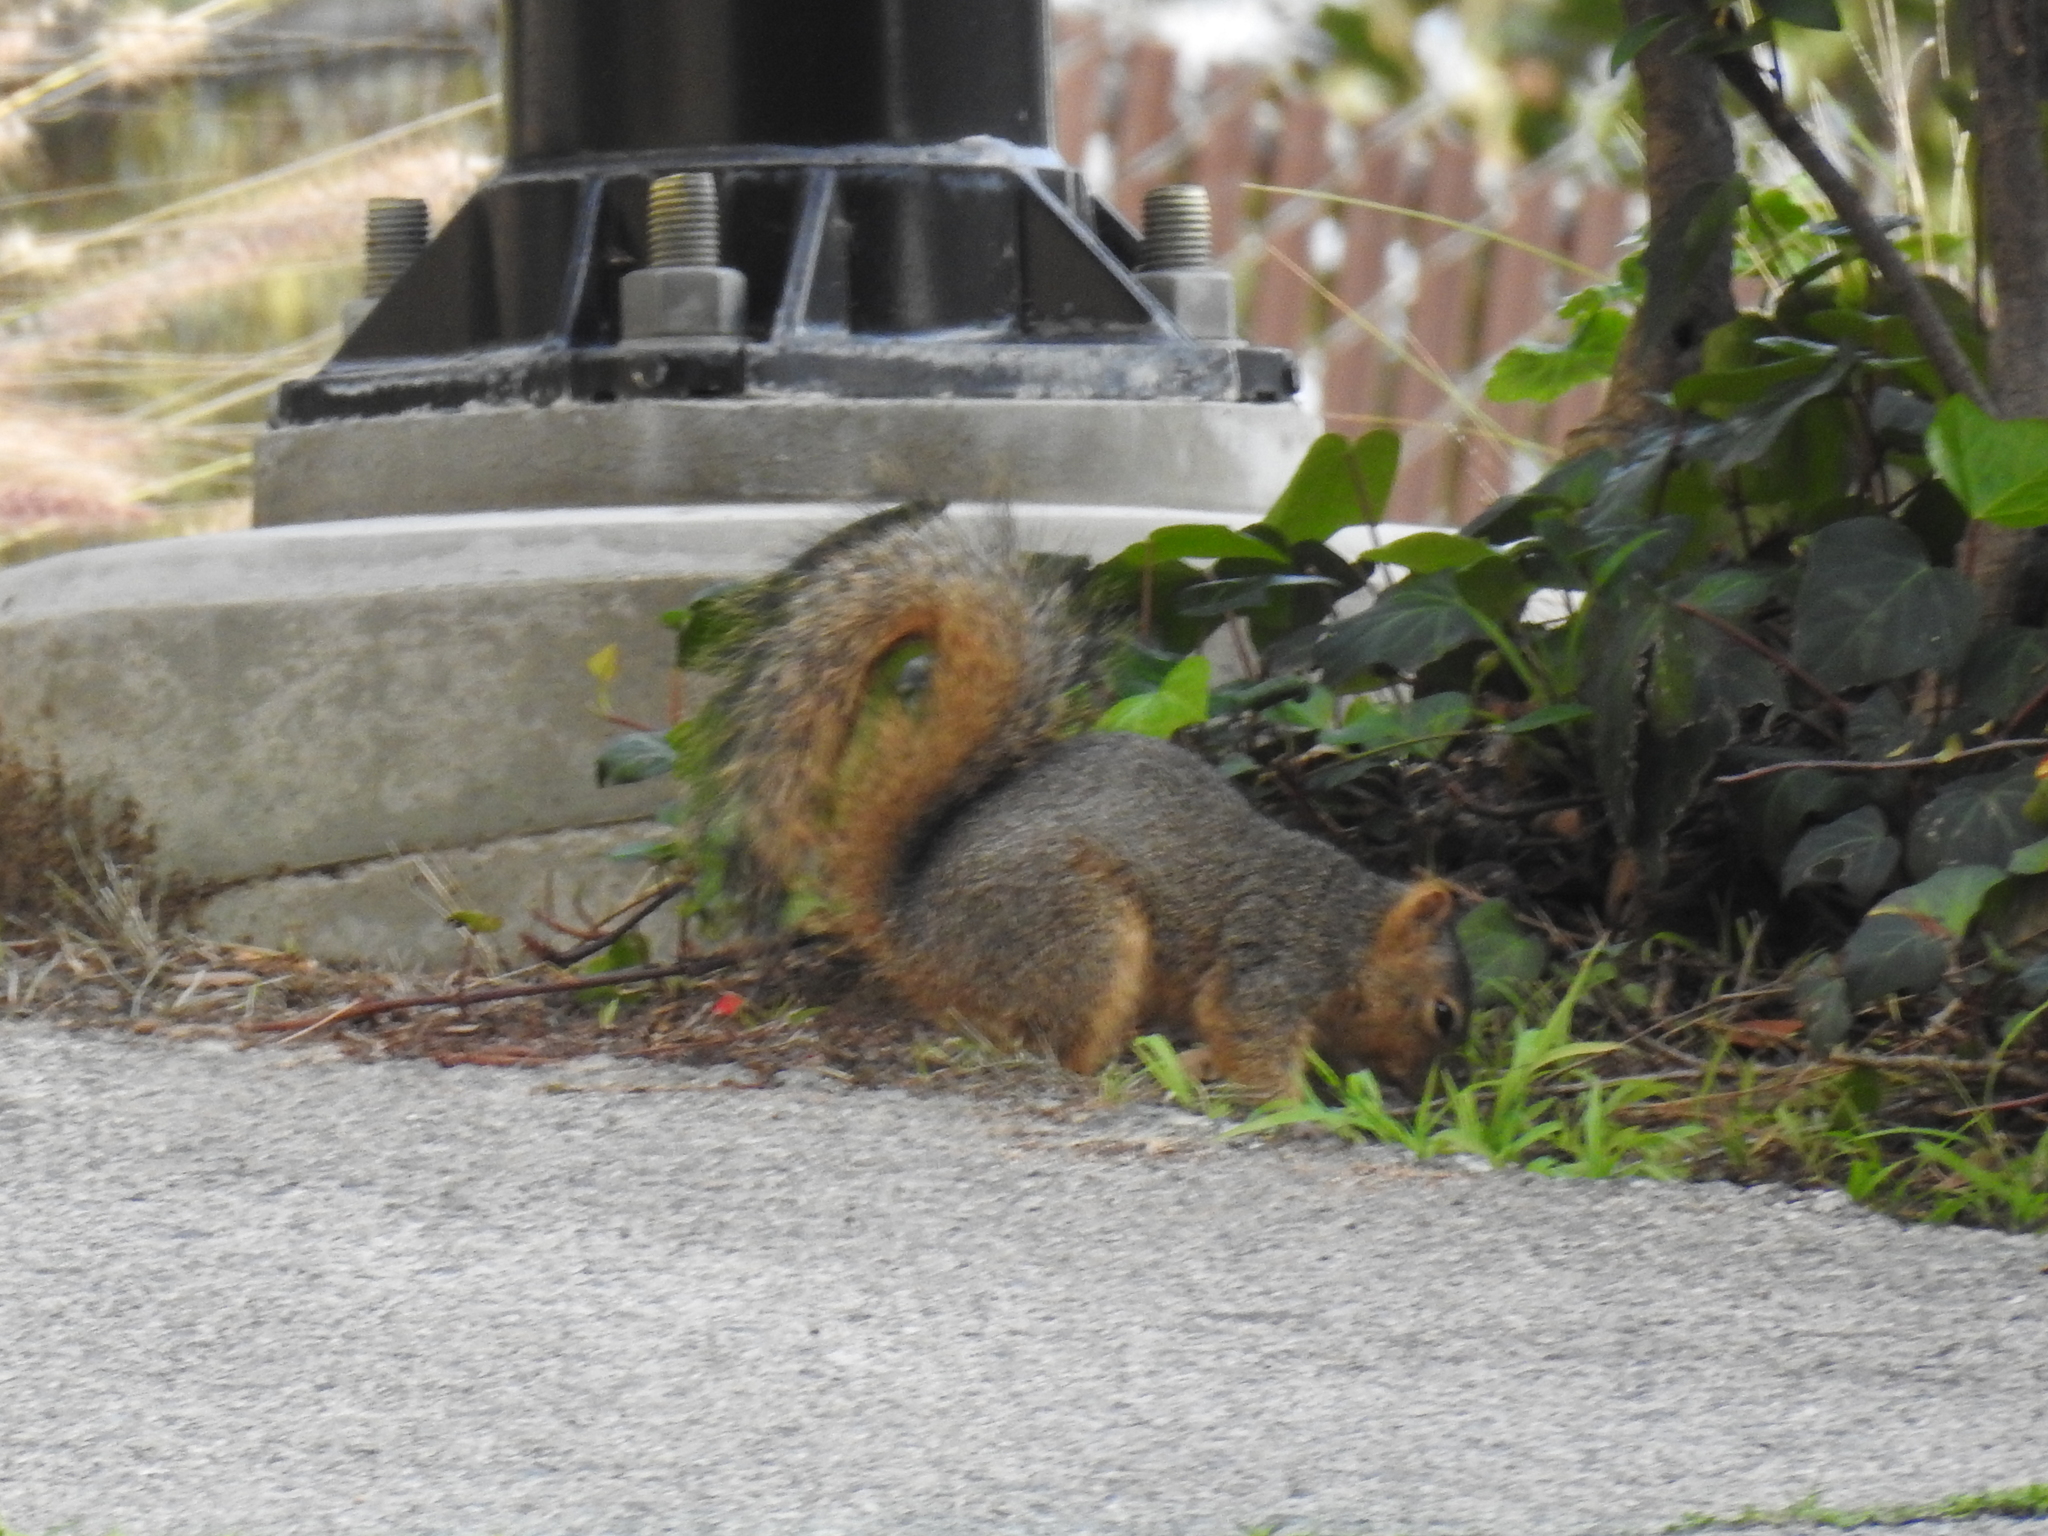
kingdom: Animalia
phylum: Chordata
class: Mammalia
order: Rodentia
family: Sciuridae
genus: Sciurus
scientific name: Sciurus niger
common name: Fox squirrel
